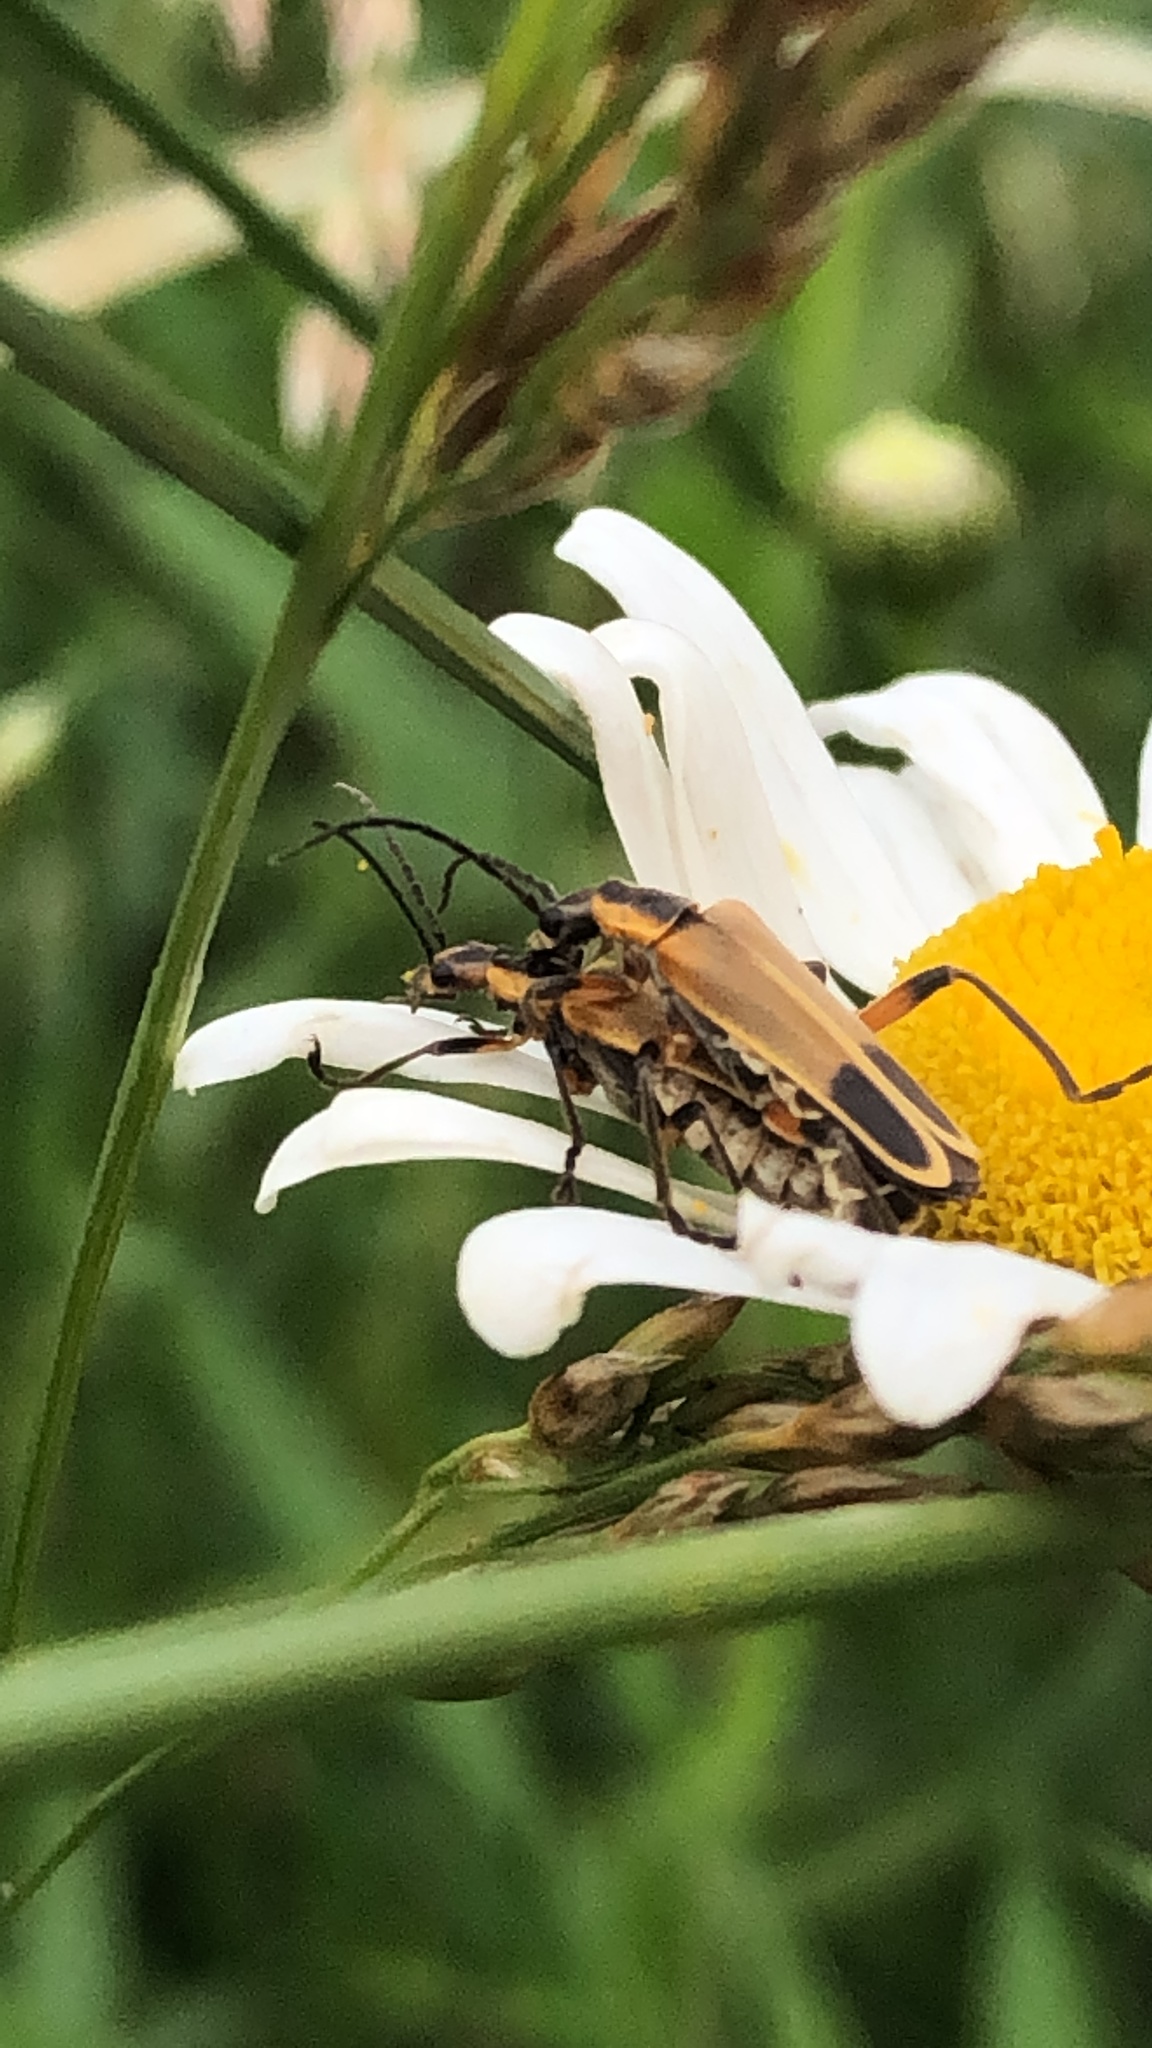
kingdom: Animalia
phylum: Arthropoda
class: Insecta
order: Coleoptera
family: Cantharidae
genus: Chauliognathus
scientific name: Chauliognathus marginatus
